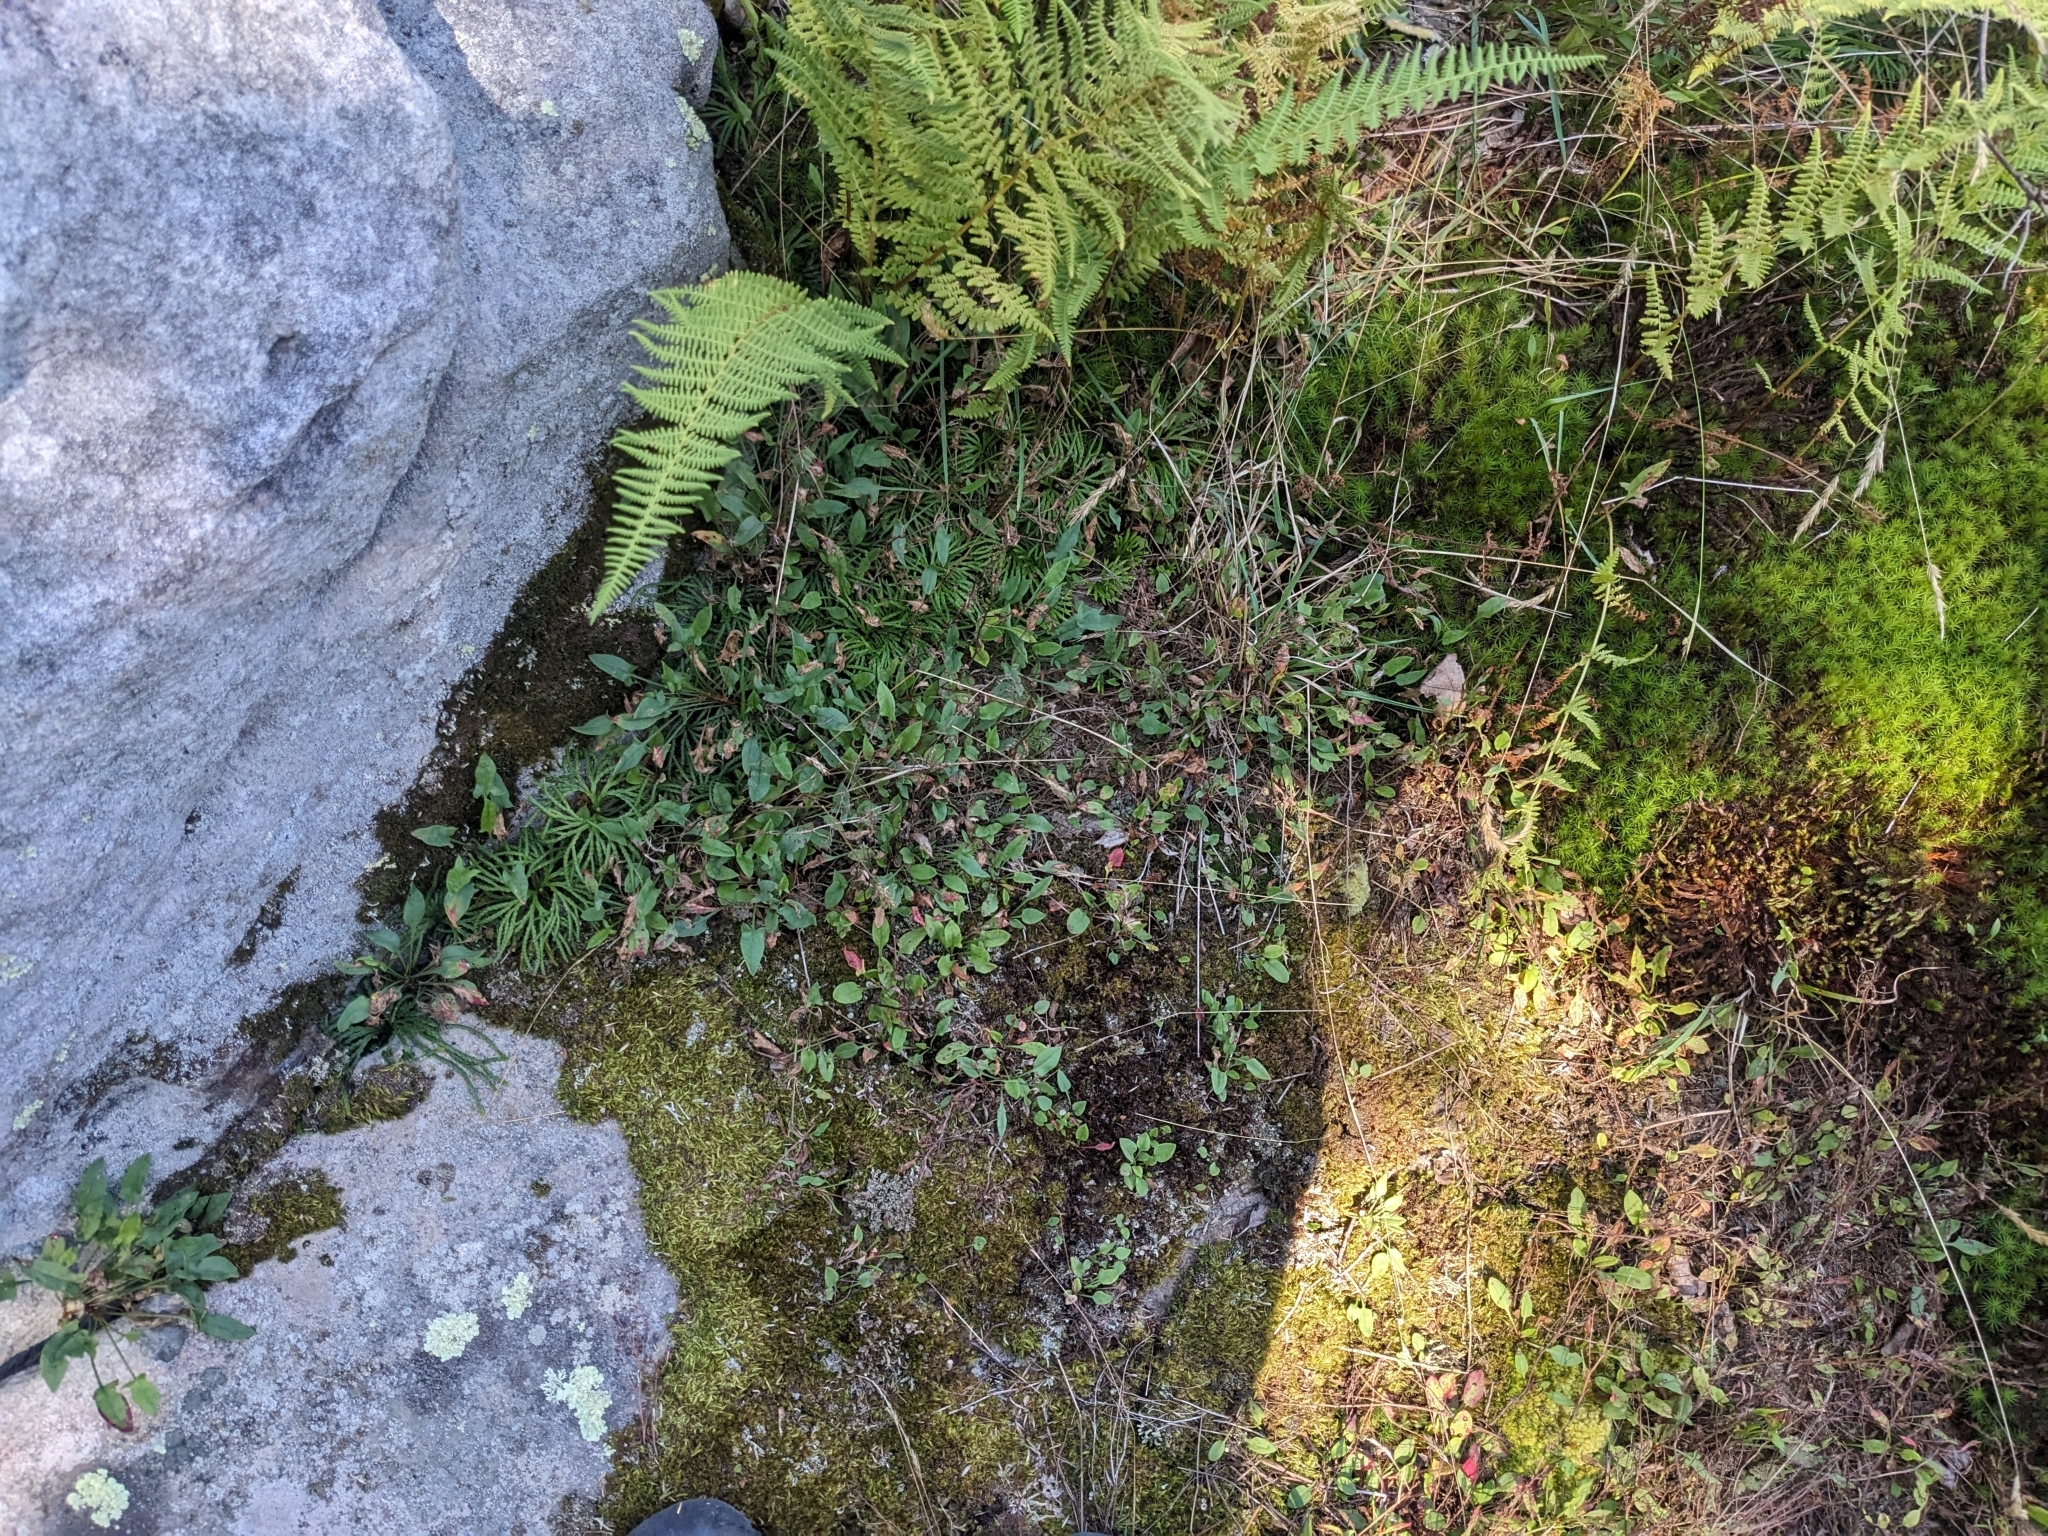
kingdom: Plantae
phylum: Tracheophyta
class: Magnoliopsida
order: Caryophyllales
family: Polygonaceae
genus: Rumex
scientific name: Rumex acetosella
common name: Common sheep sorrel
